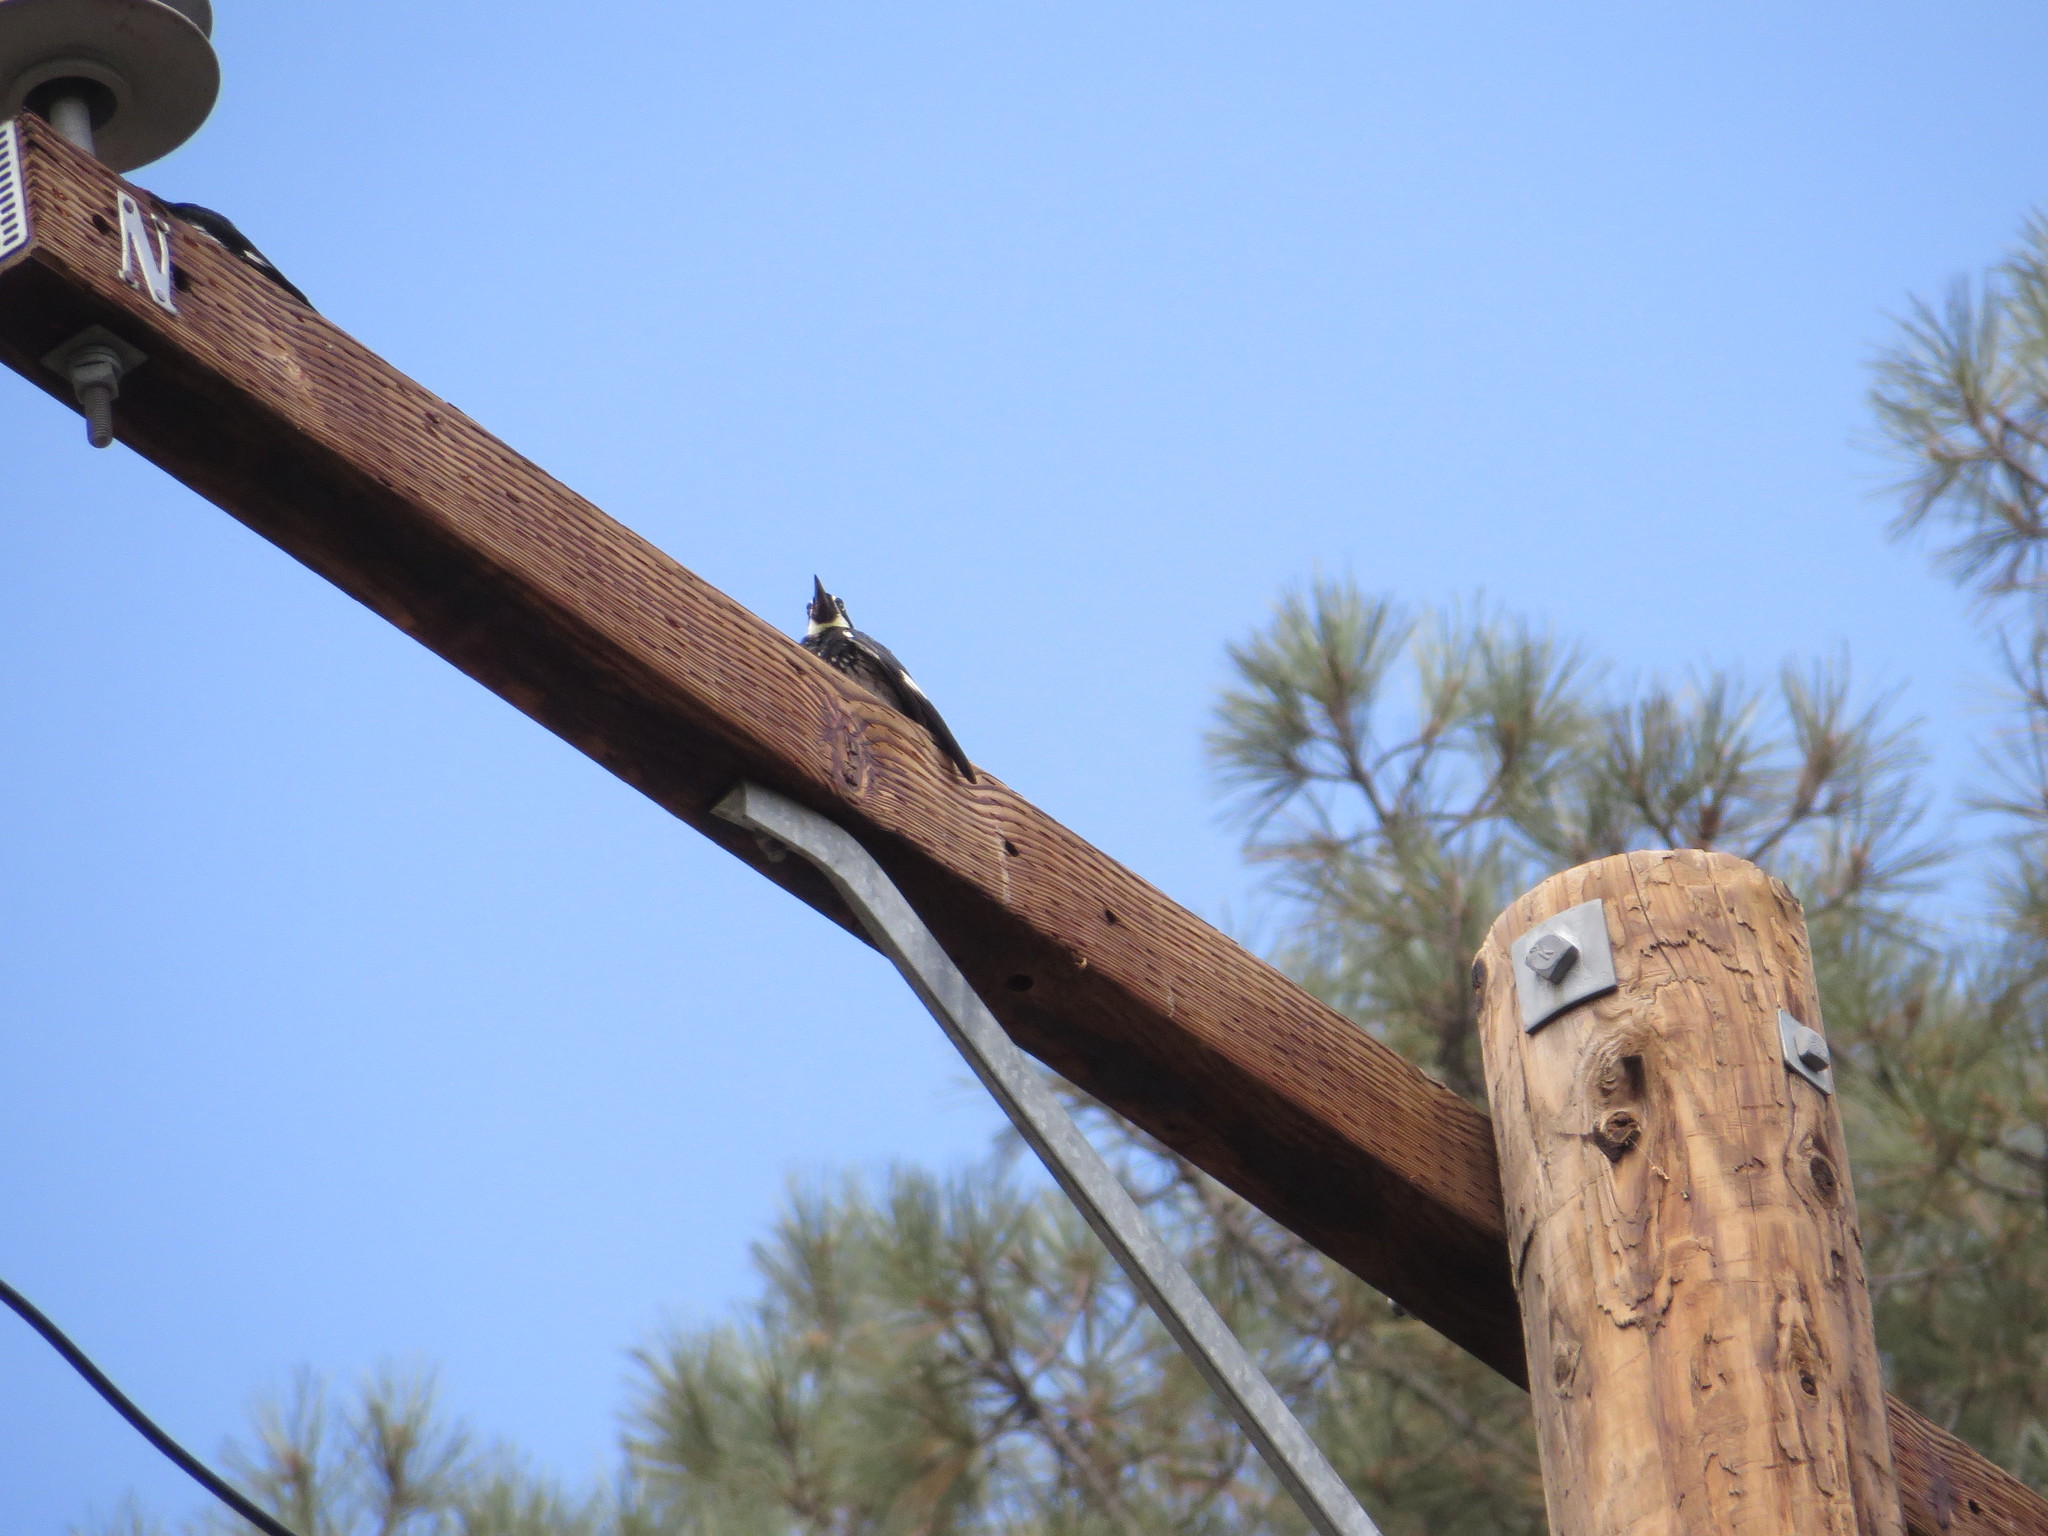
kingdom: Animalia
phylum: Chordata
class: Aves
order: Piciformes
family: Picidae
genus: Melanerpes
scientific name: Melanerpes formicivorus
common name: Acorn woodpecker
